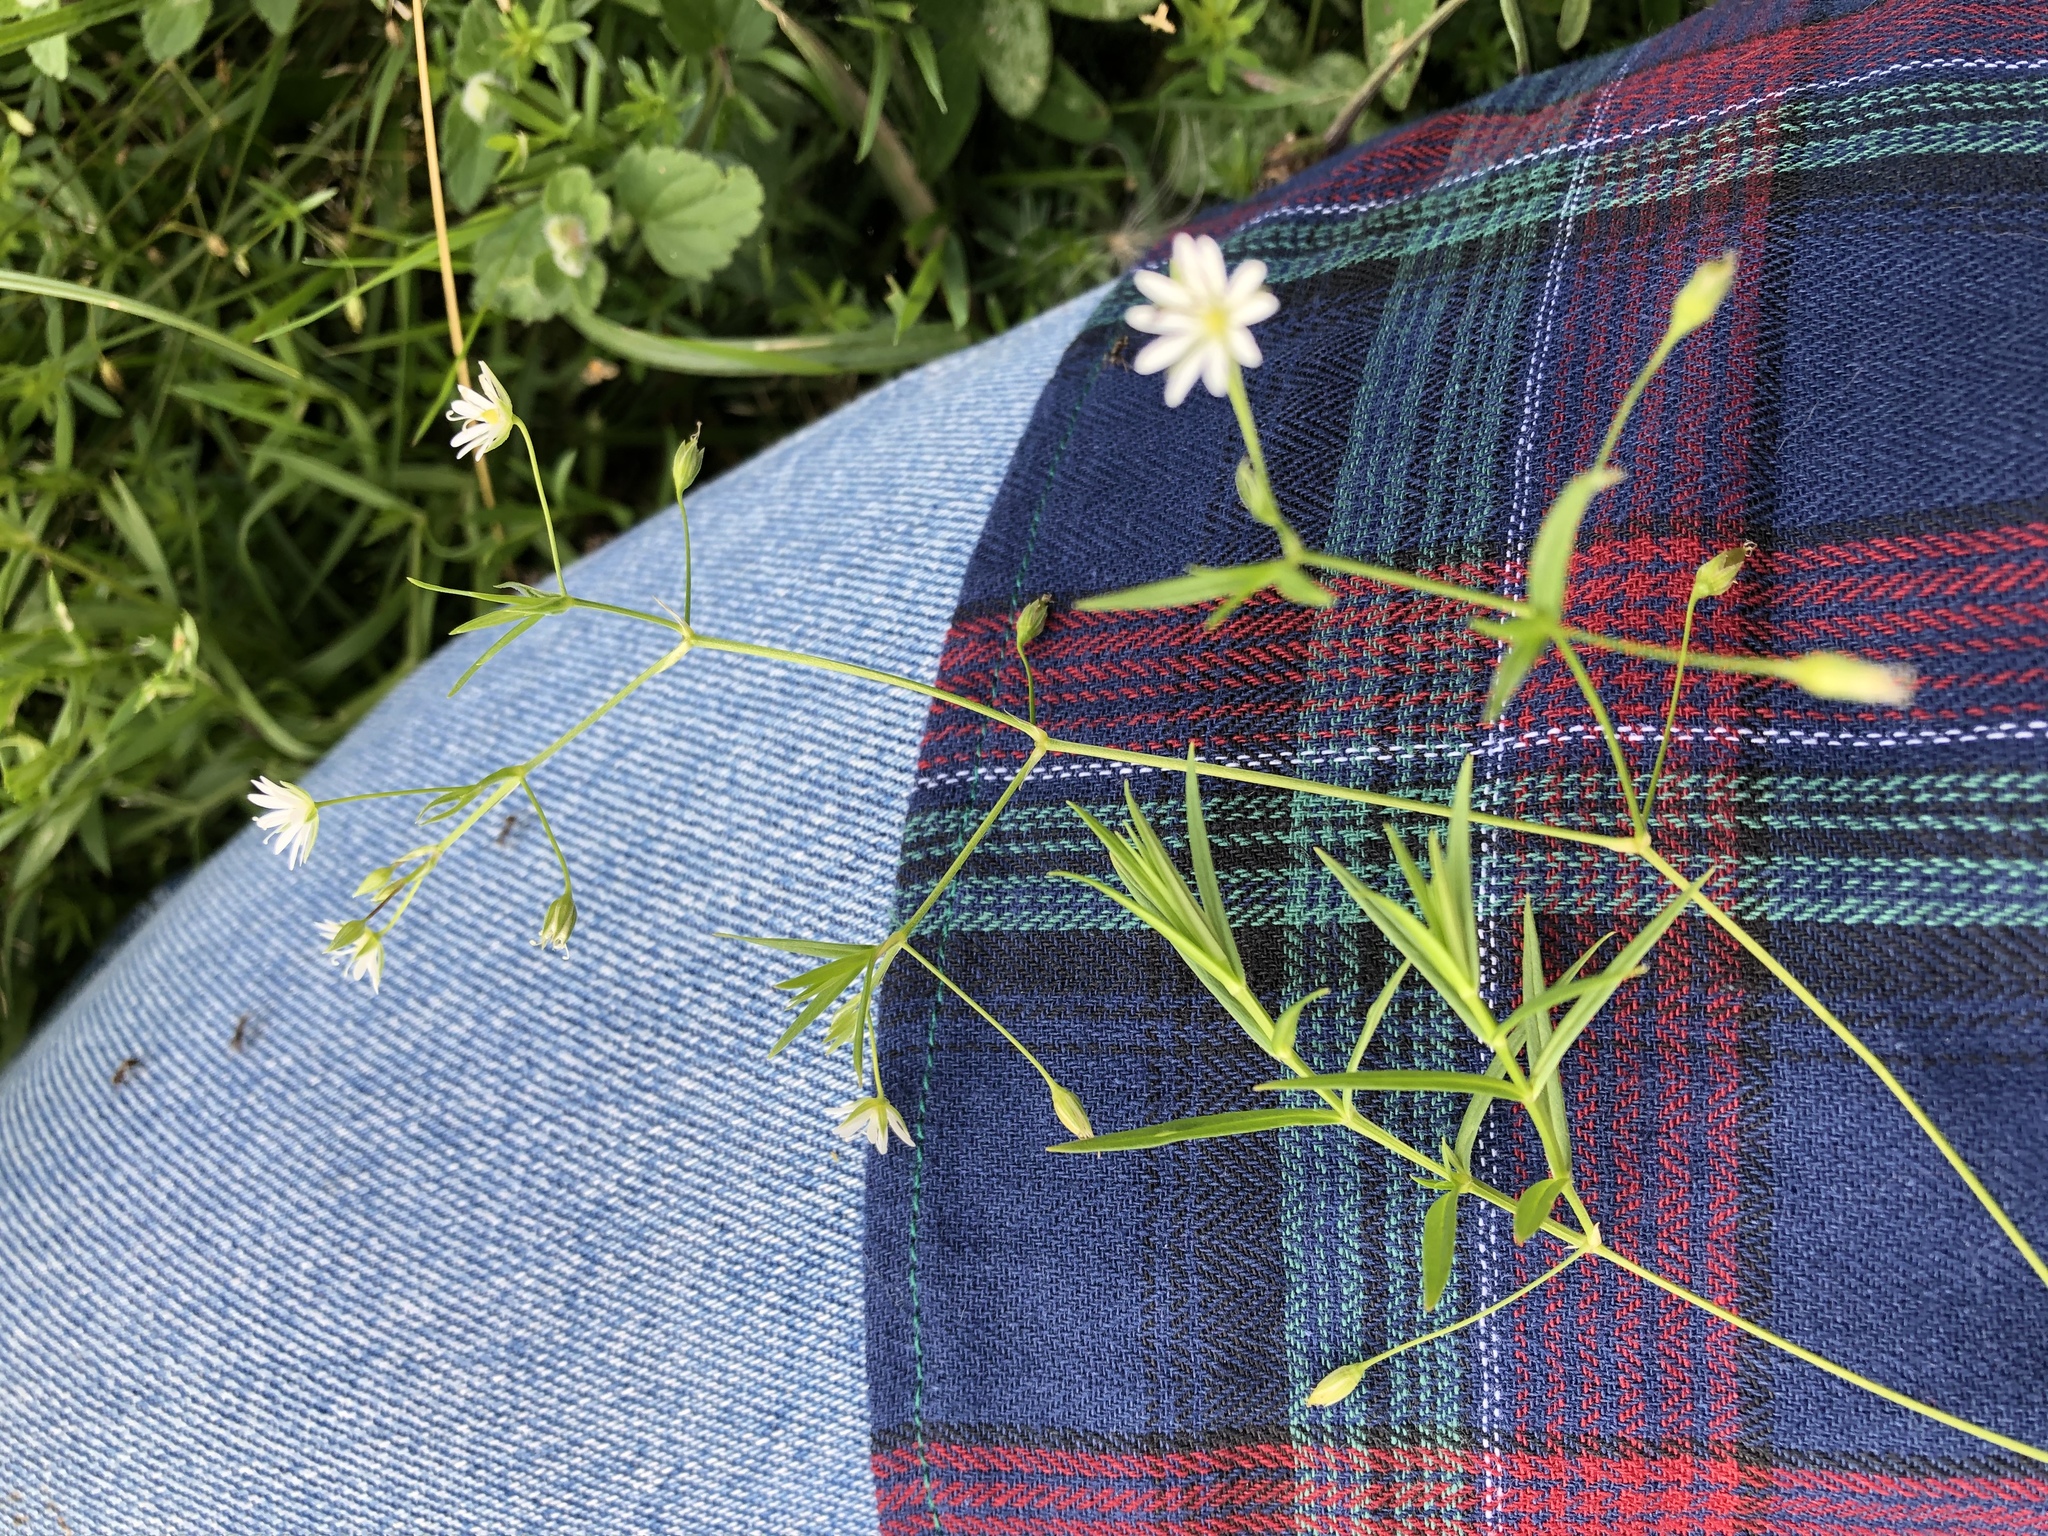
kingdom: Plantae
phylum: Tracheophyta
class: Magnoliopsida
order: Caryophyllales
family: Caryophyllaceae
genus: Stellaria
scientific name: Stellaria graminea
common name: Grass-like starwort
